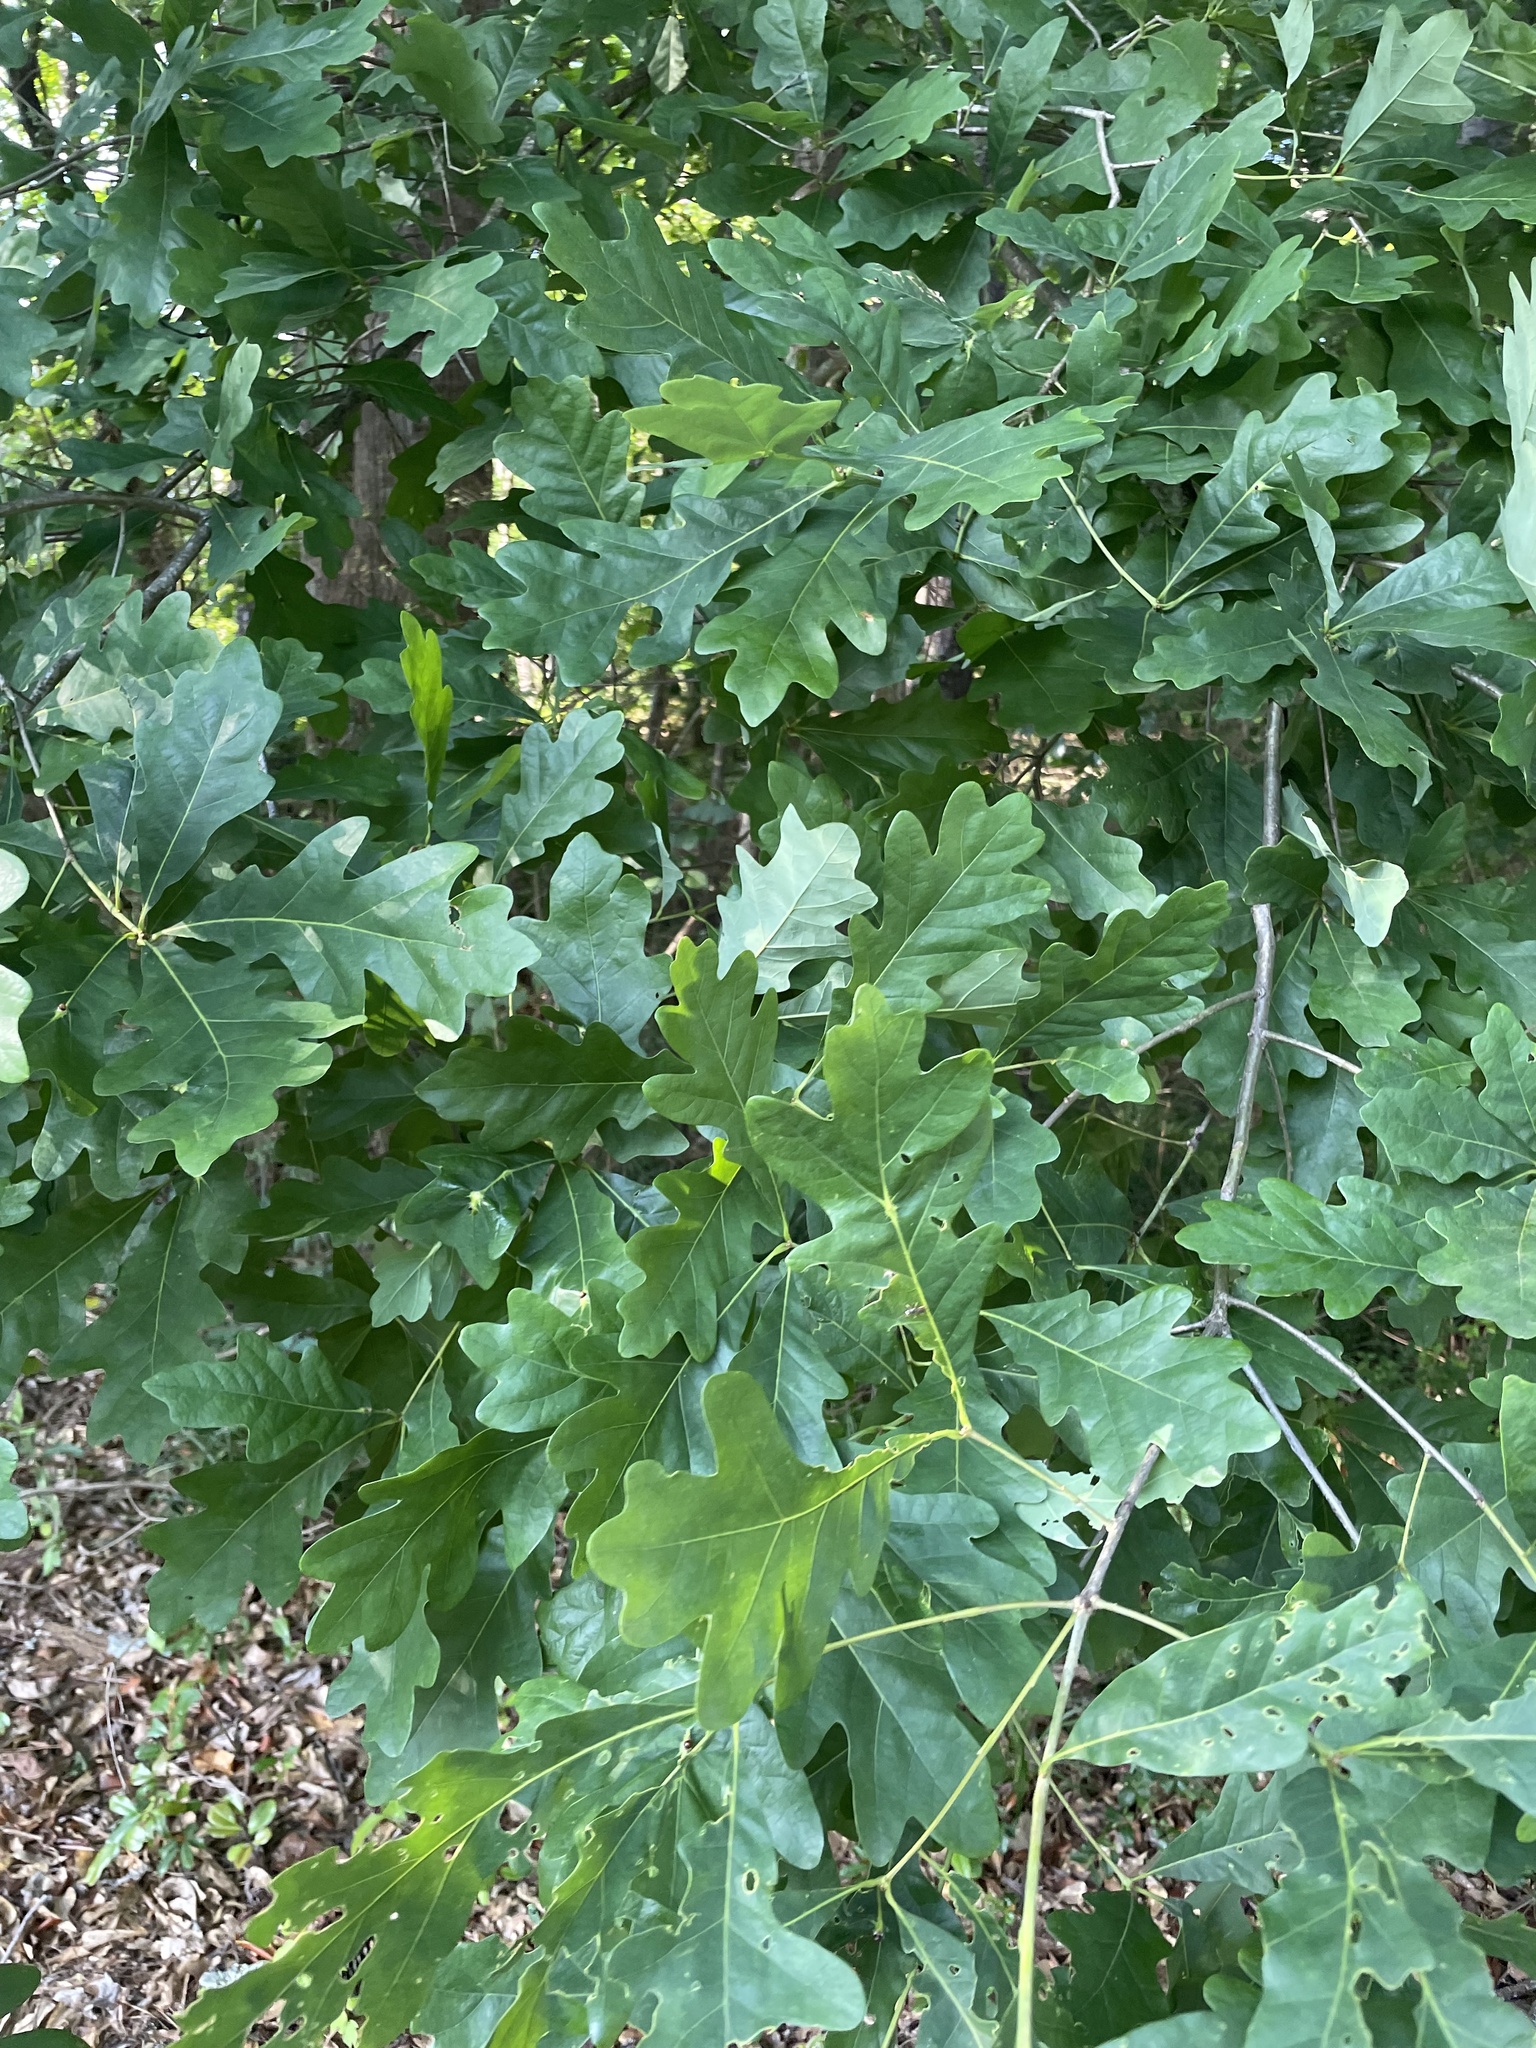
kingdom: Plantae
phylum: Tracheophyta
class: Magnoliopsida
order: Fagales
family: Fagaceae
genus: Quercus
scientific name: Quercus alba
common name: White oak
